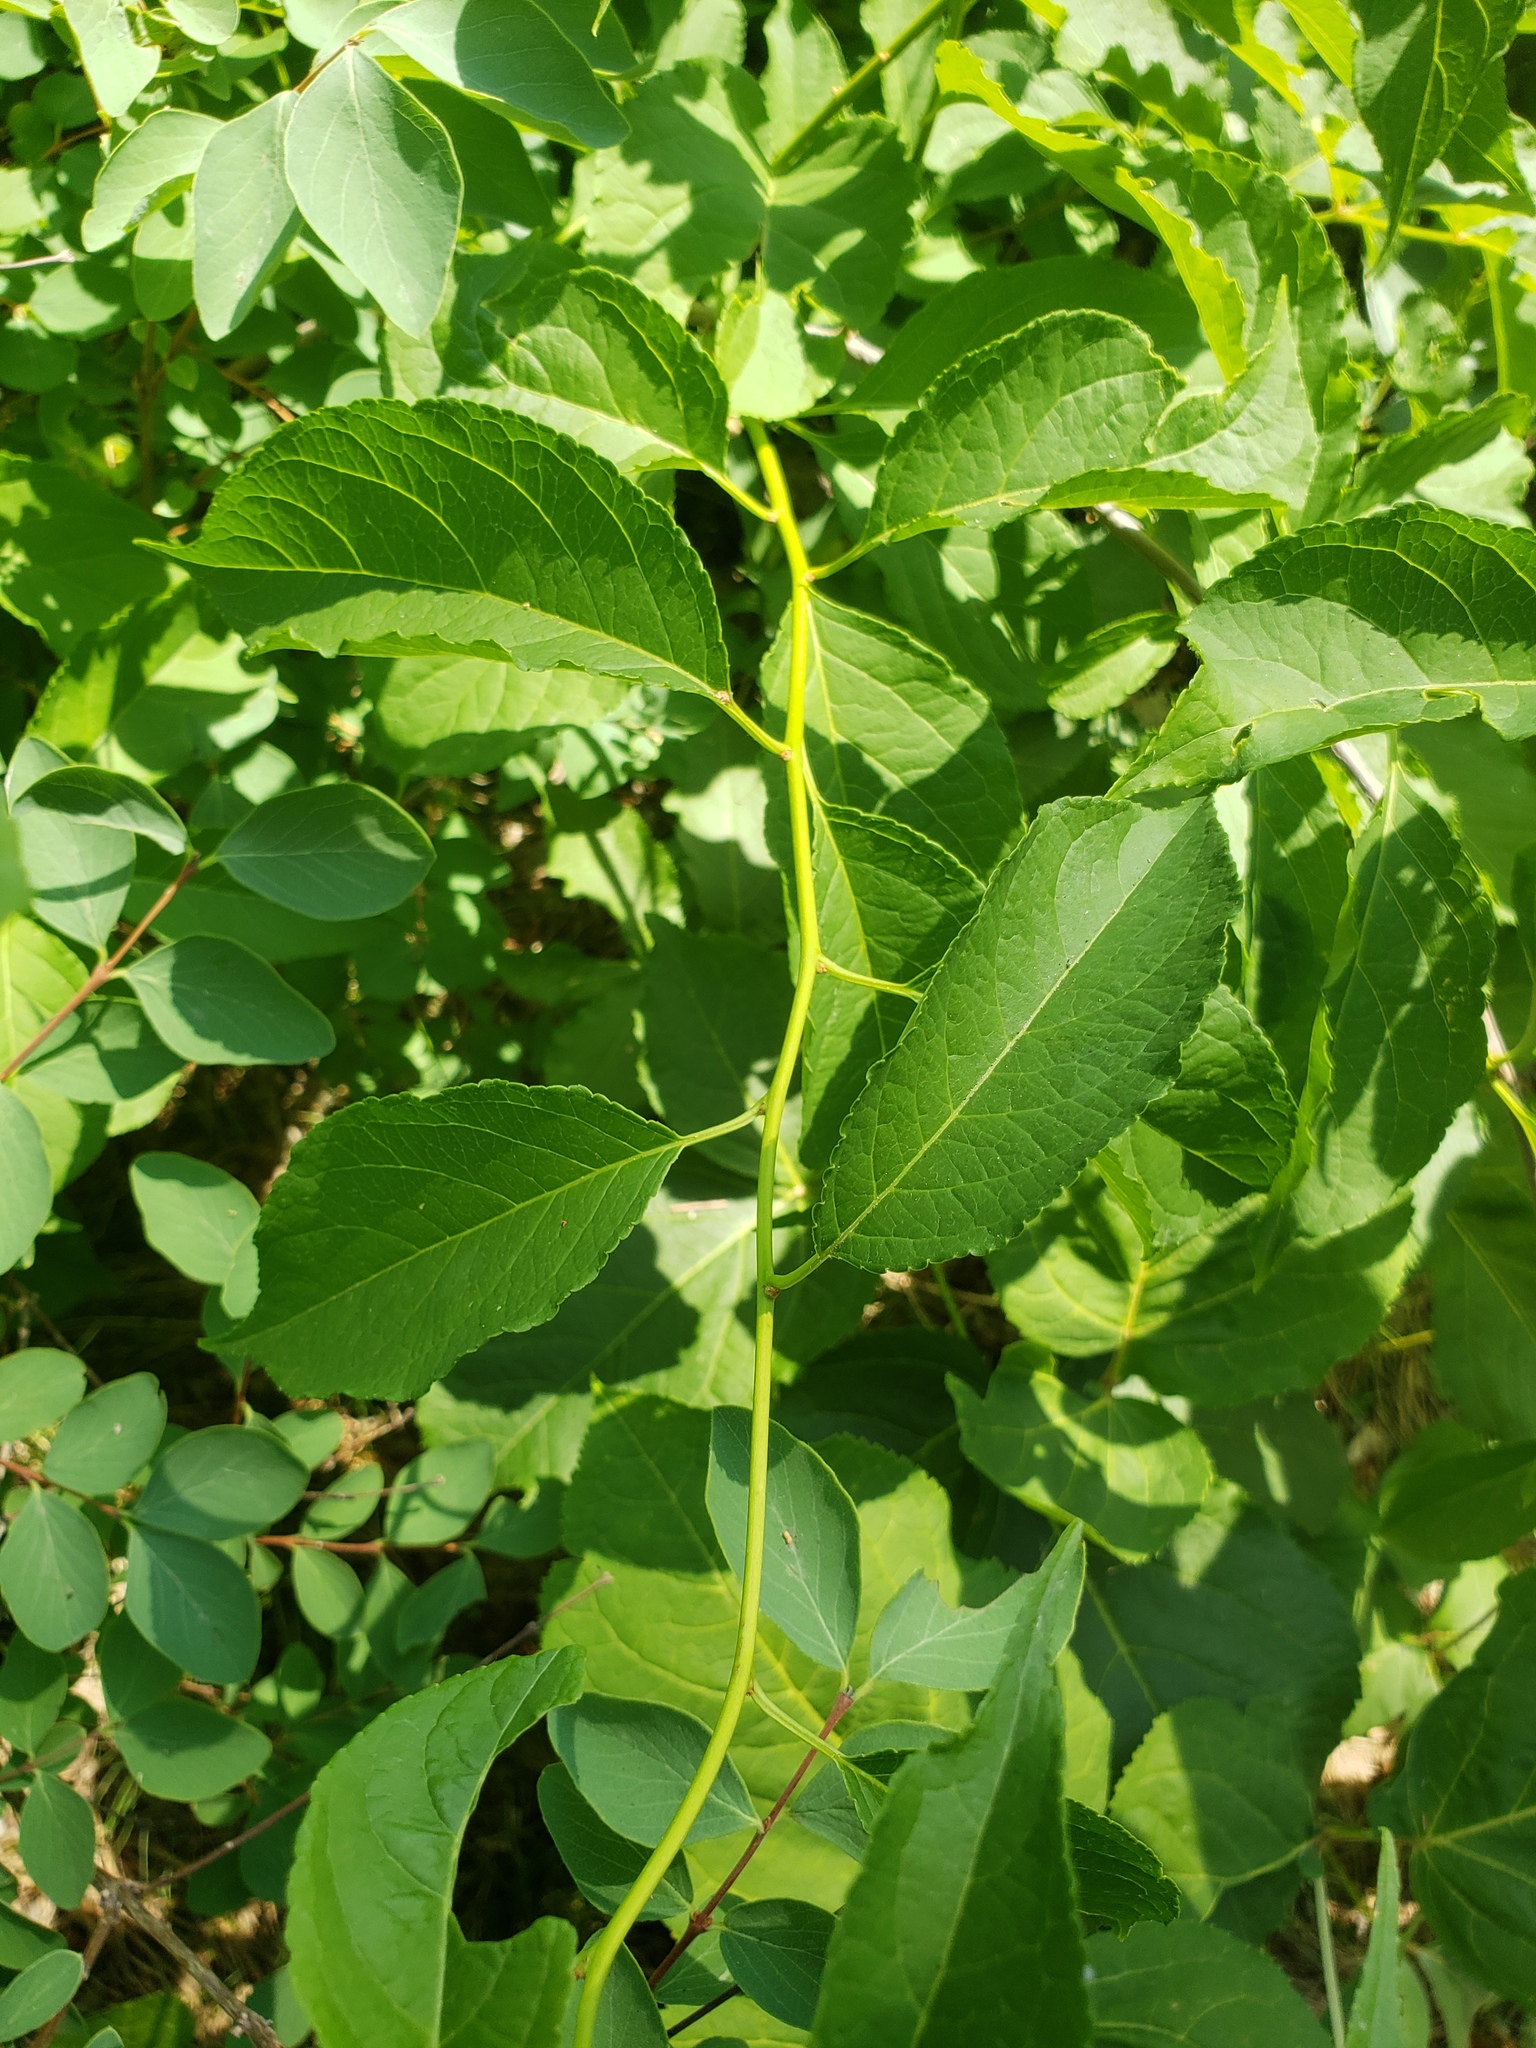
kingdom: Plantae
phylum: Tracheophyta
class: Magnoliopsida
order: Celastrales
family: Celastraceae
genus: Celastrus
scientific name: Celastrus scandens
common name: American bittersweet
